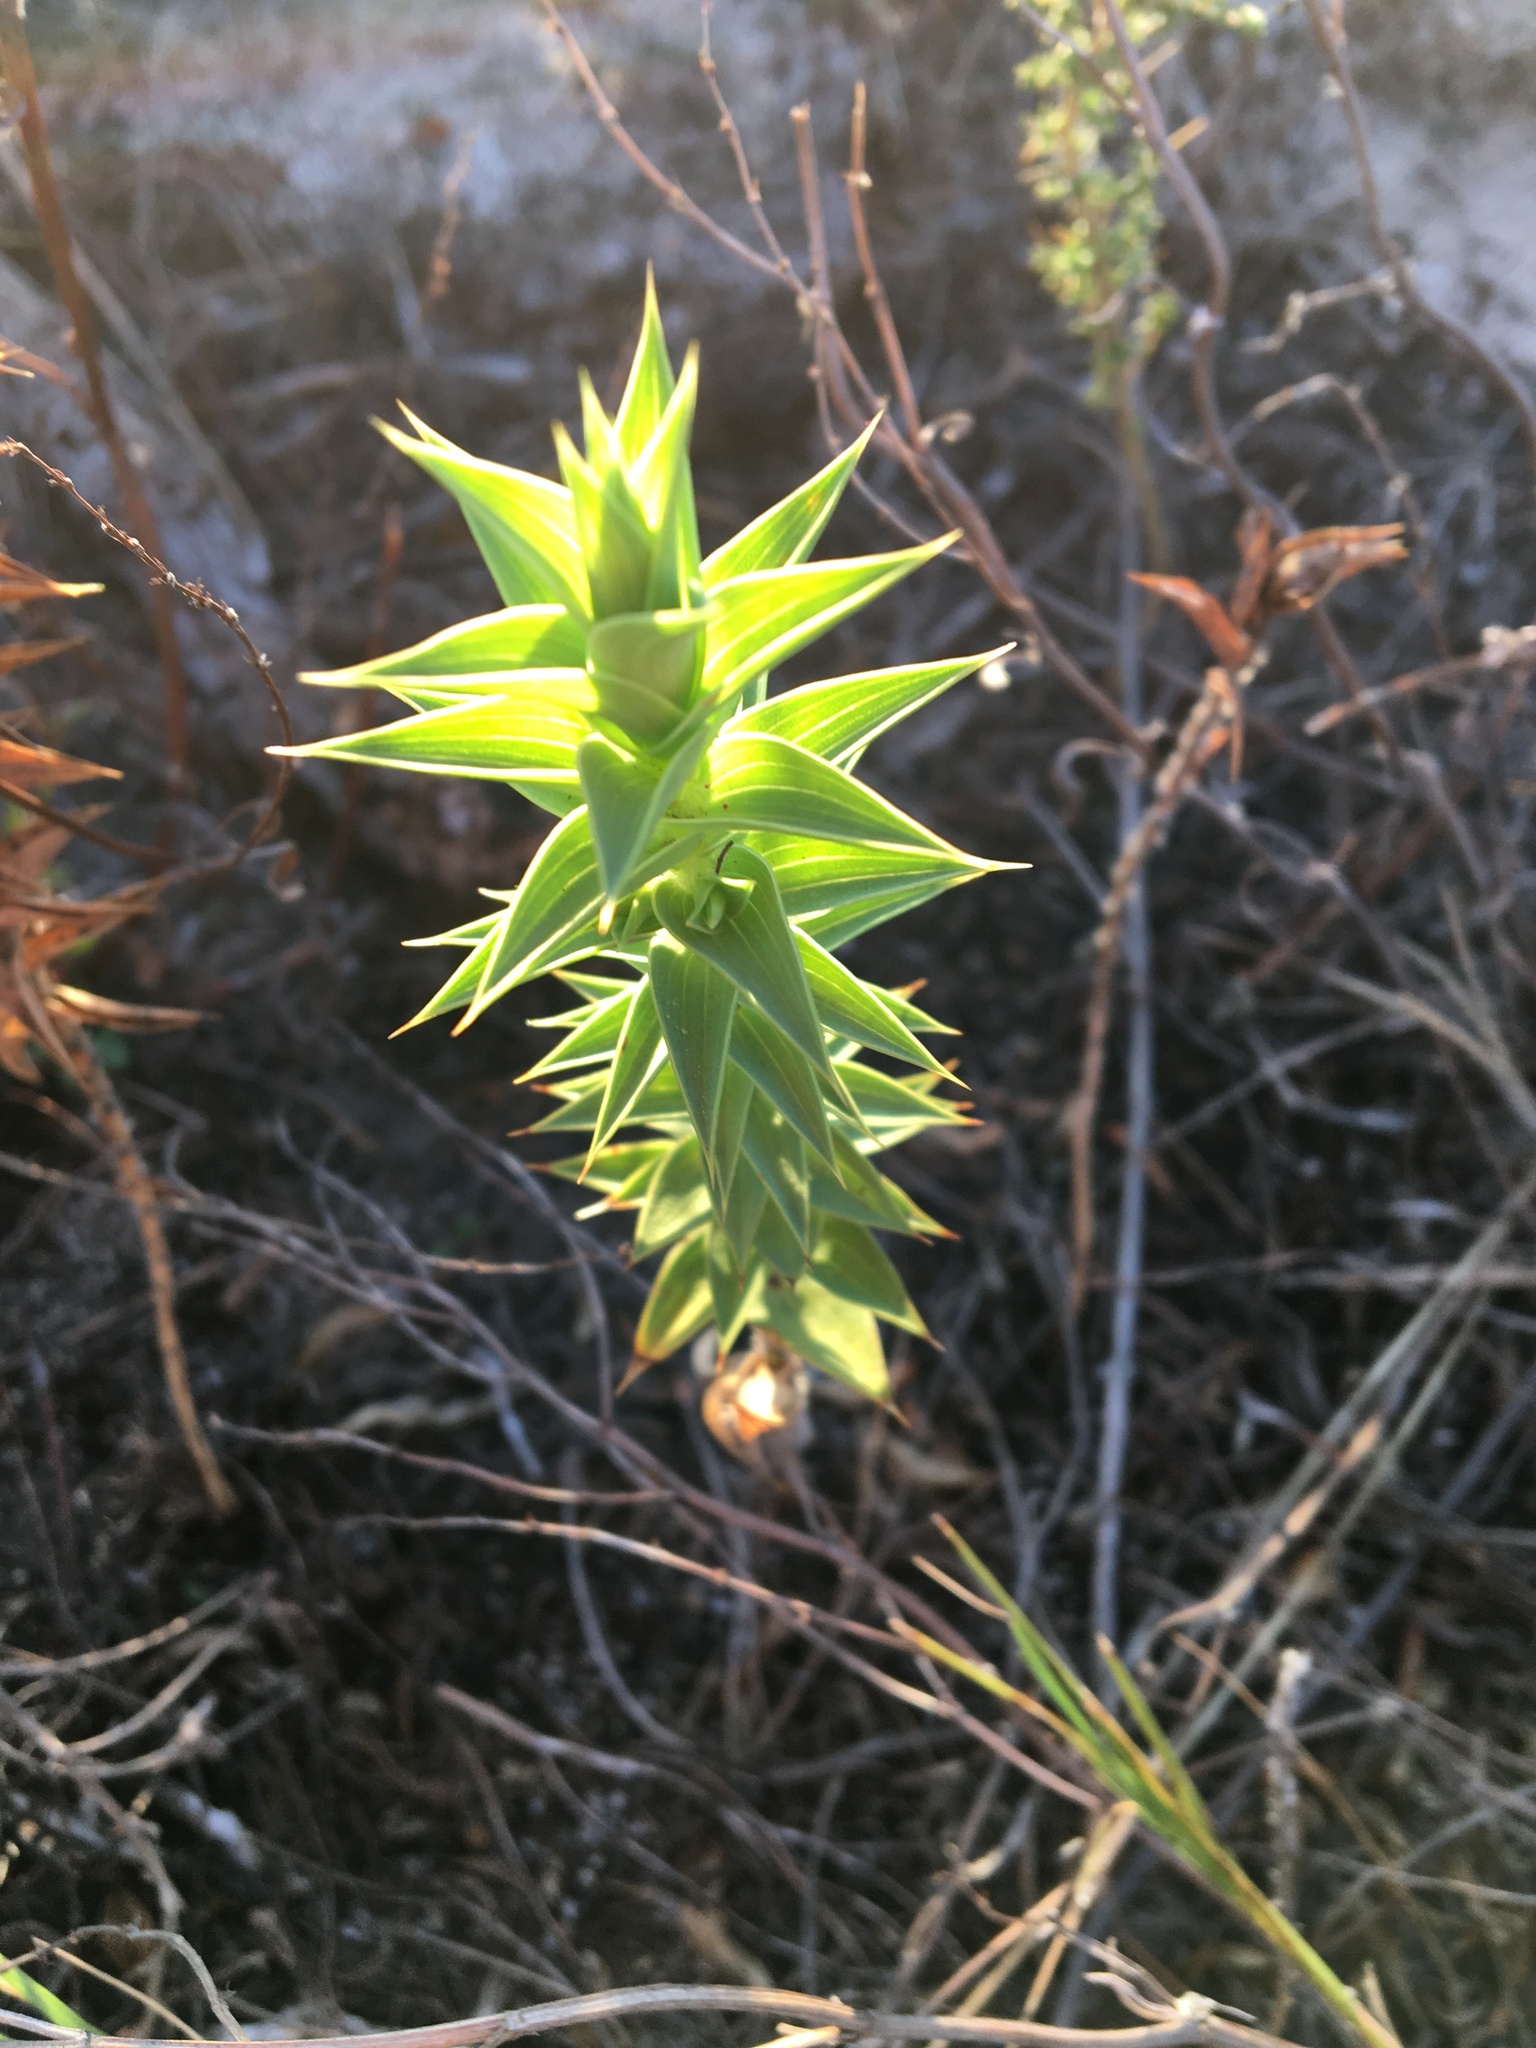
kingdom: Plantae
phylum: Tracheophyta
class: Magnoliopsida
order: Fabales
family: Fabaceae
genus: Aspalathus
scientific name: Aspalathus cordata
